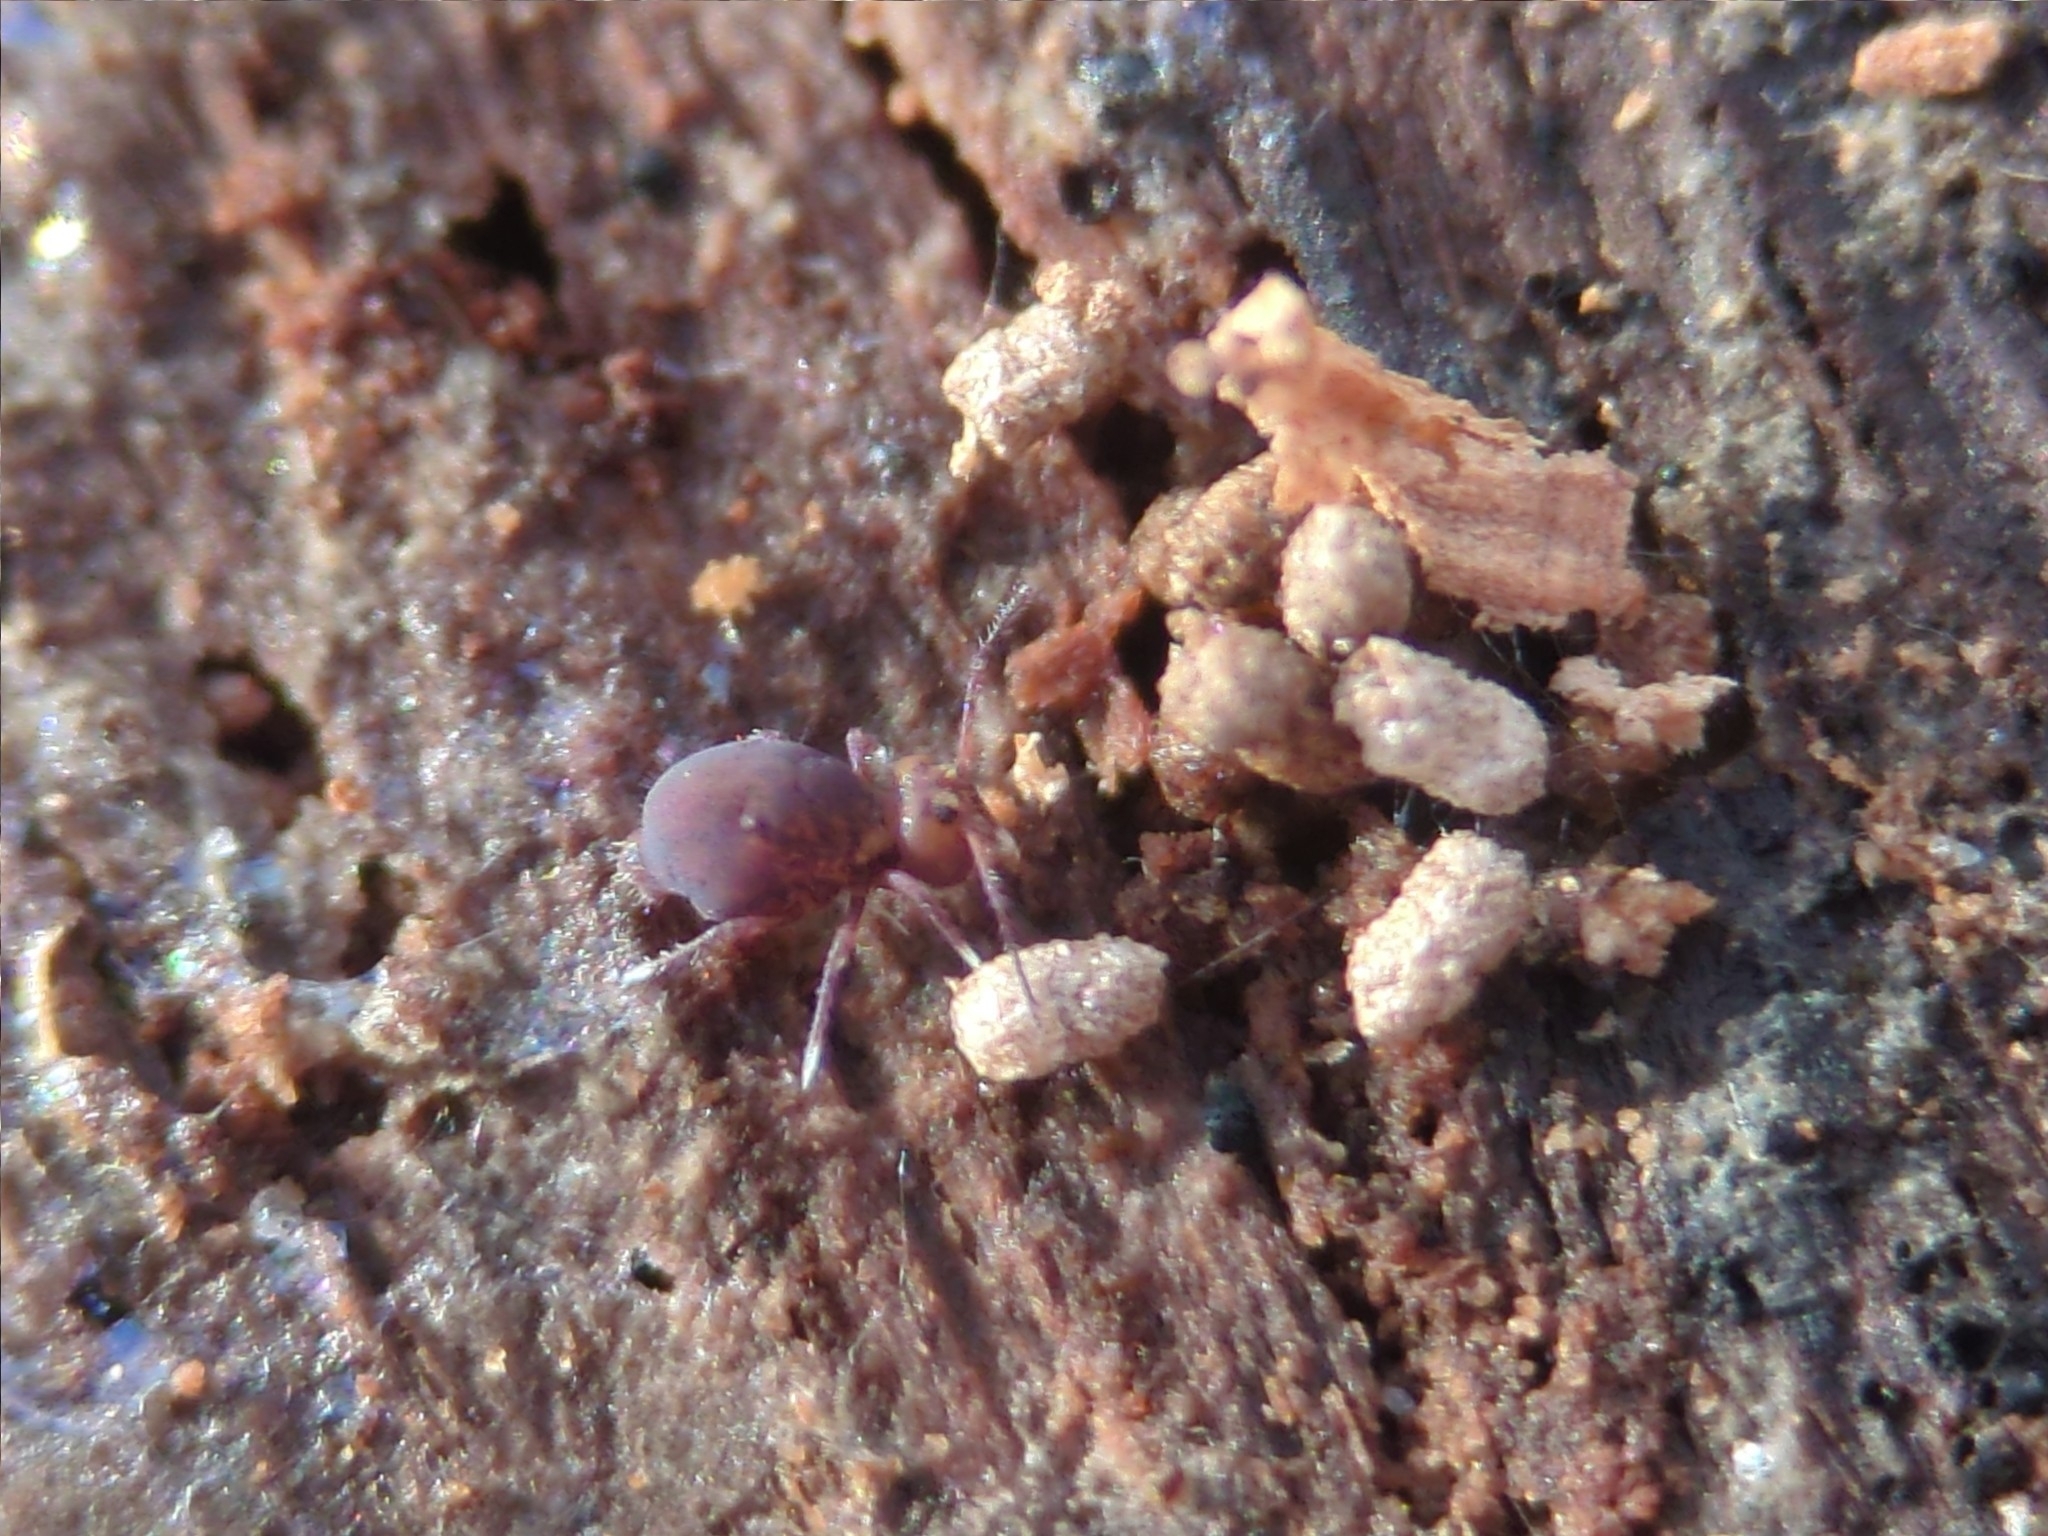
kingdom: Animalia
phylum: Arthropoda
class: Collembola
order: Symphypleona
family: Dicyrtomidae
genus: Dicyrtoma
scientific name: Dicyrtoma fusca
